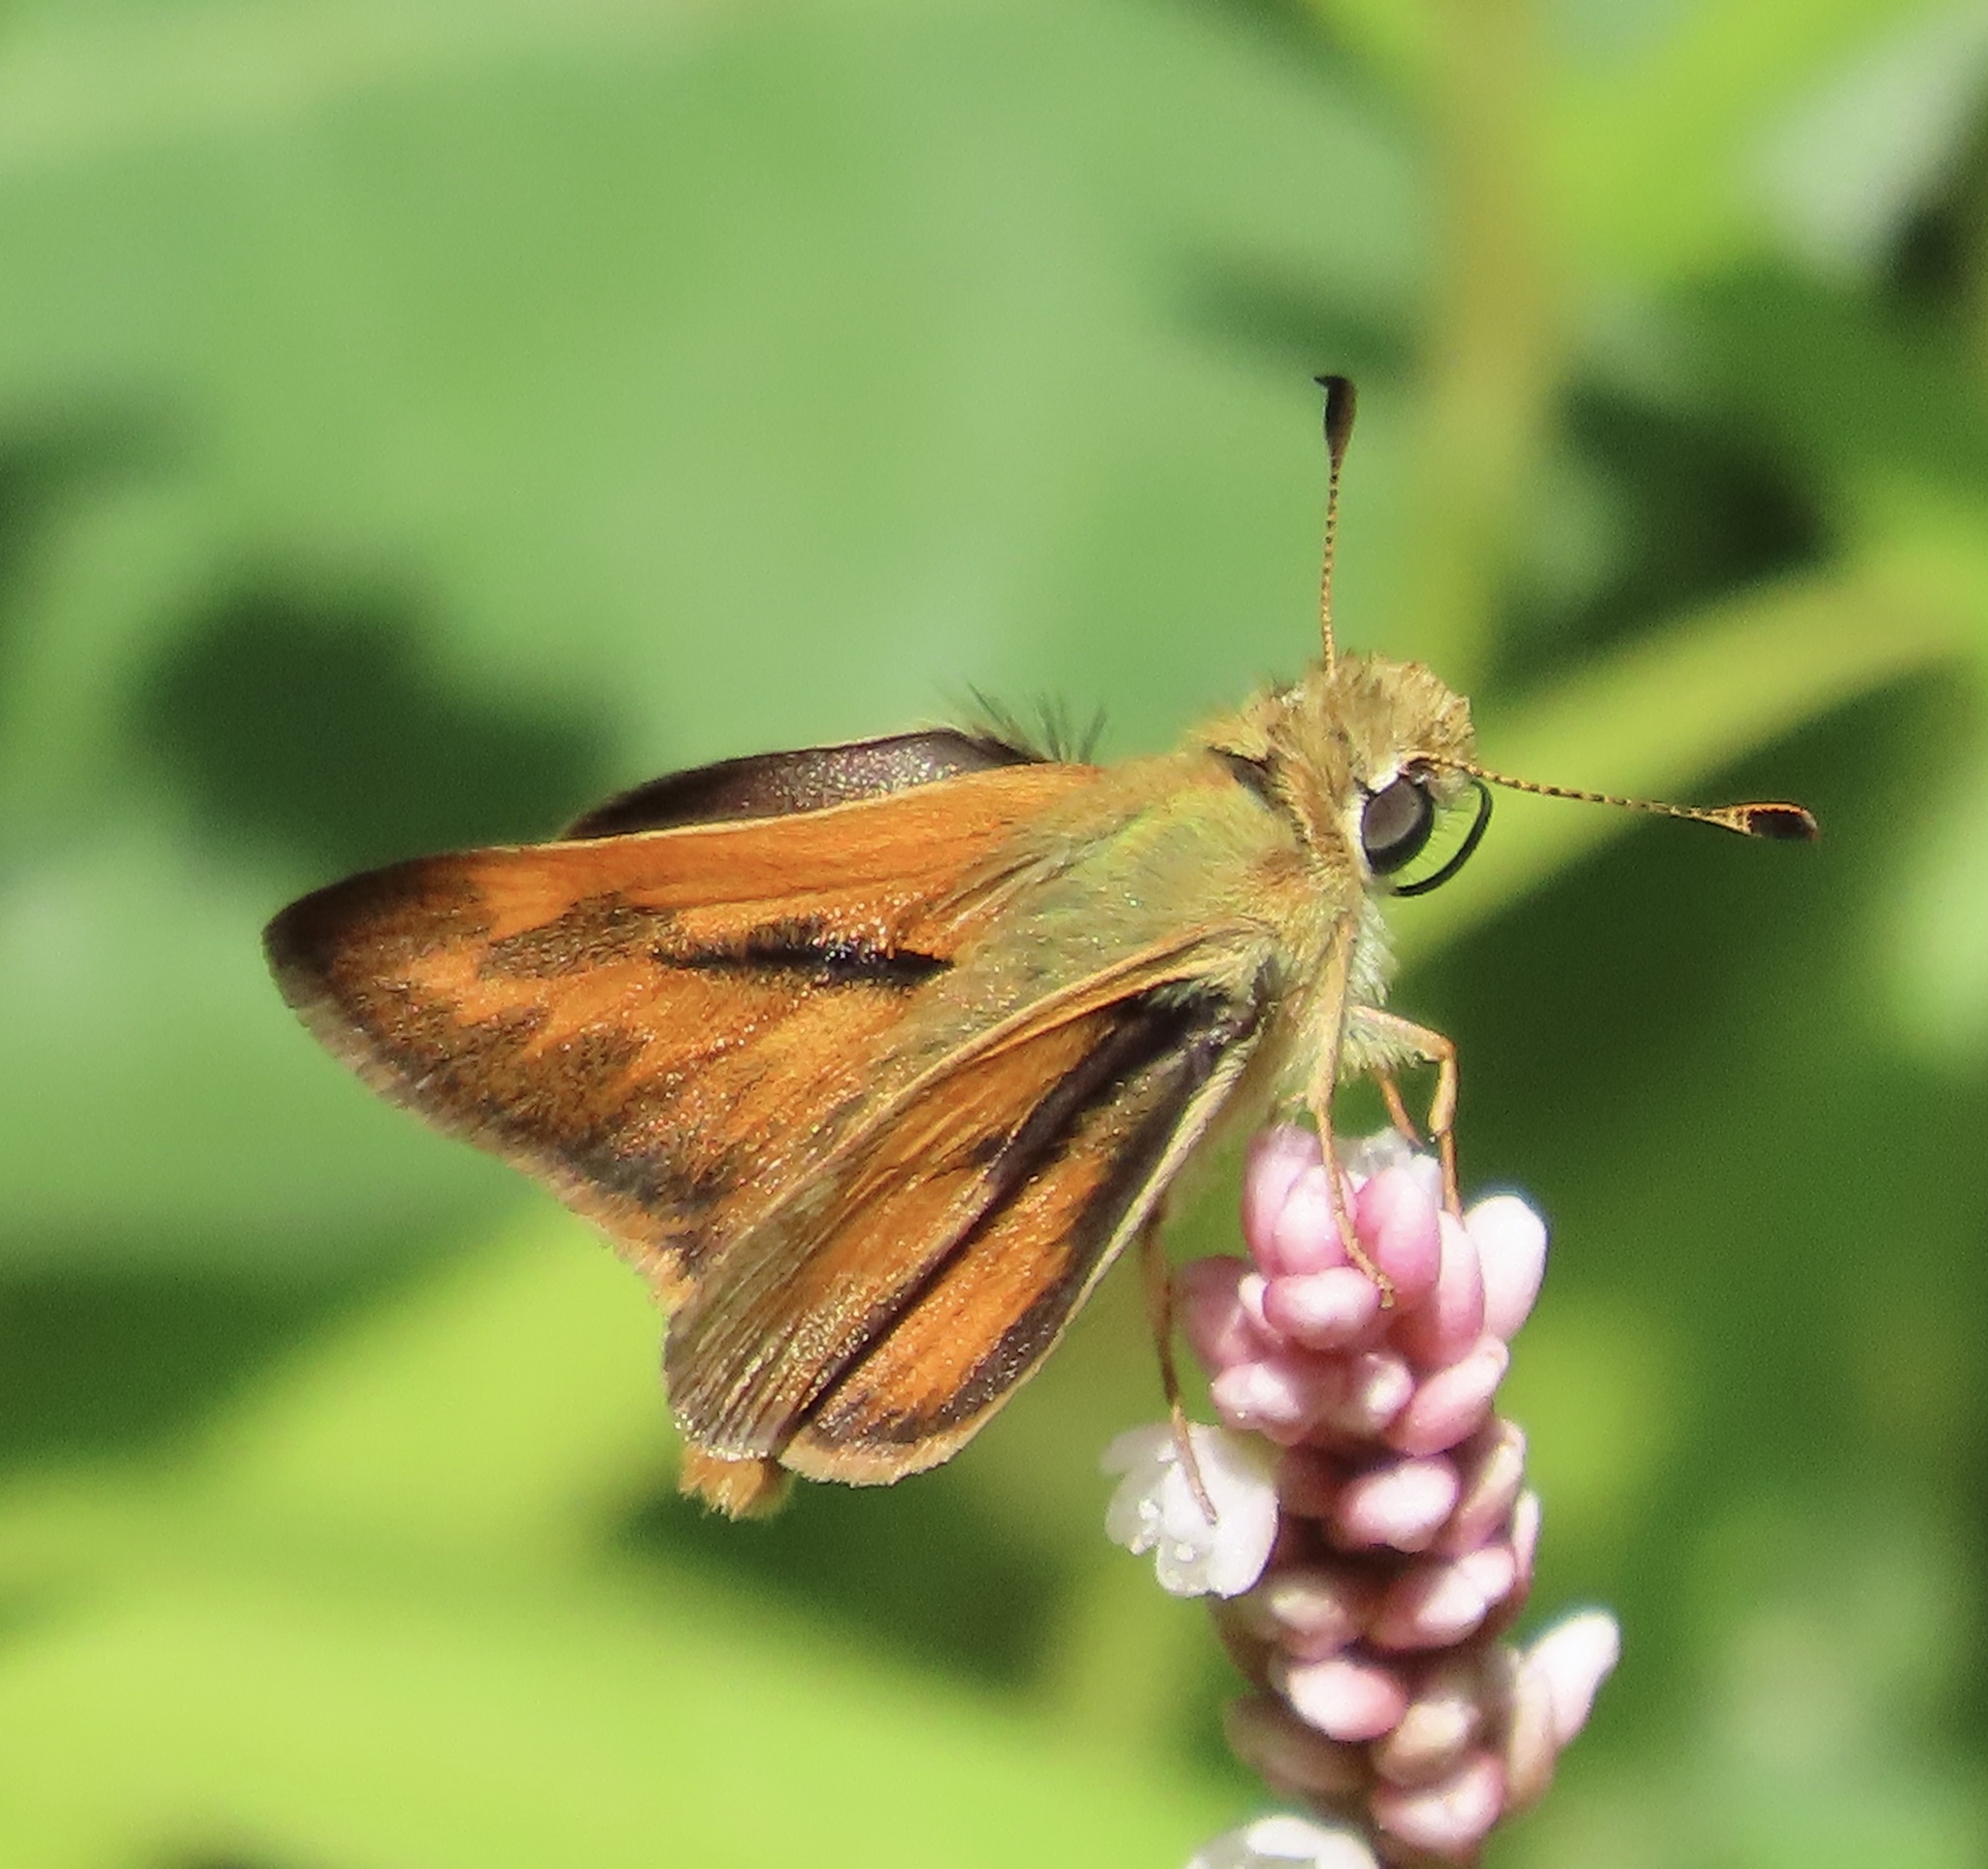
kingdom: Animalia
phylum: Arthropoda
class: Insecta
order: Lepidoptera
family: Hesperiidae
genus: Ochlodes
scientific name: Ochlodes sylvanoides
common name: Woodland skipper
